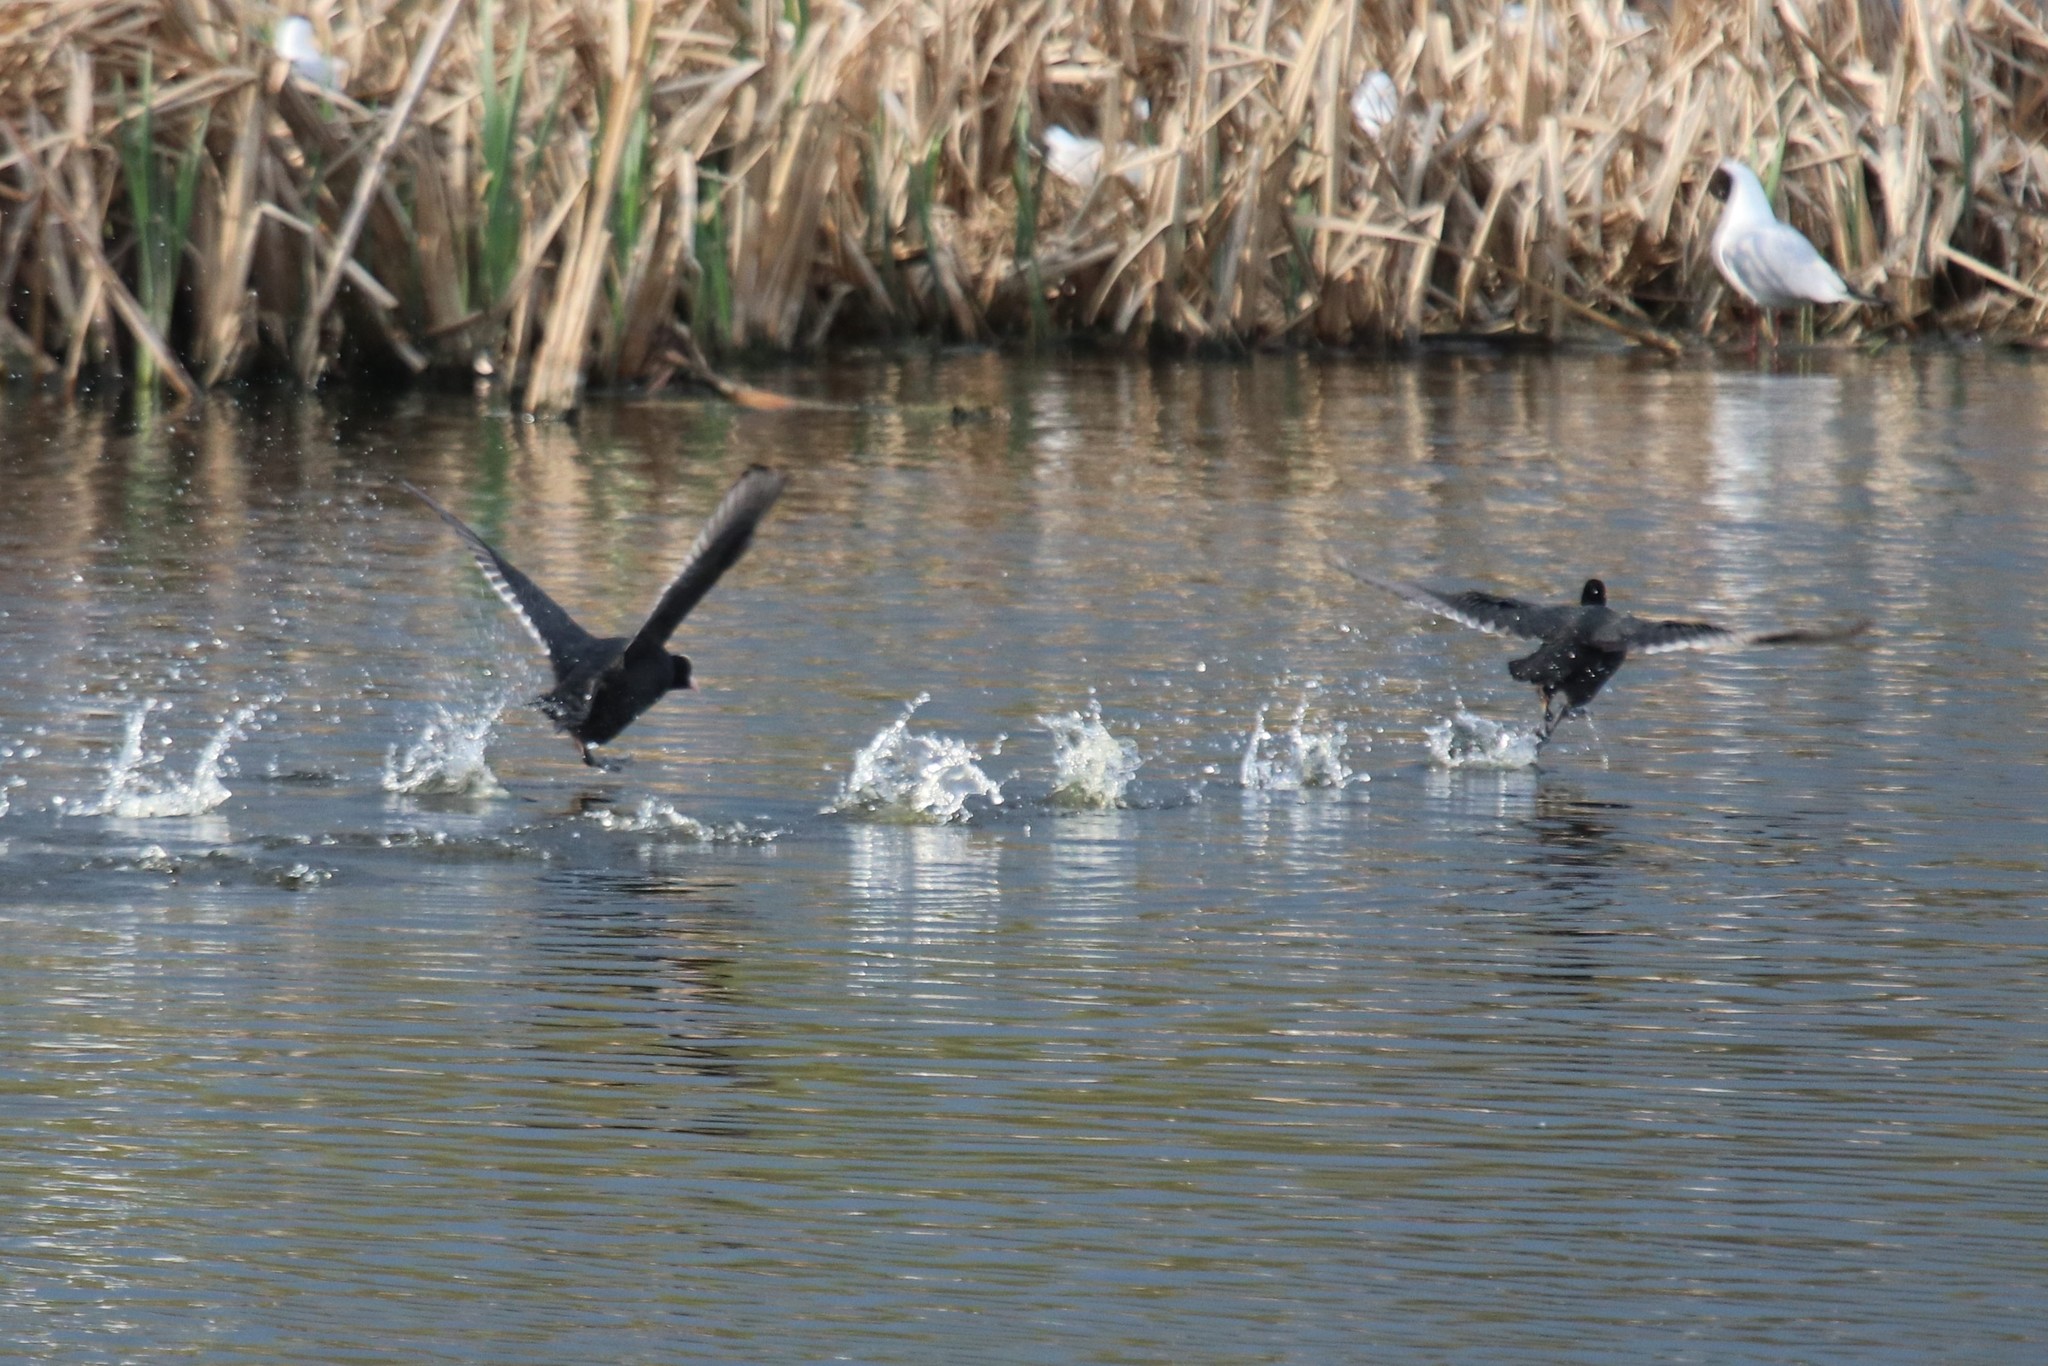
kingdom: Animalia
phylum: Chordata
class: Aves
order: Gruiformes
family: Rallidae
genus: Fulica
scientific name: Fulica atra
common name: Eurasian coot
